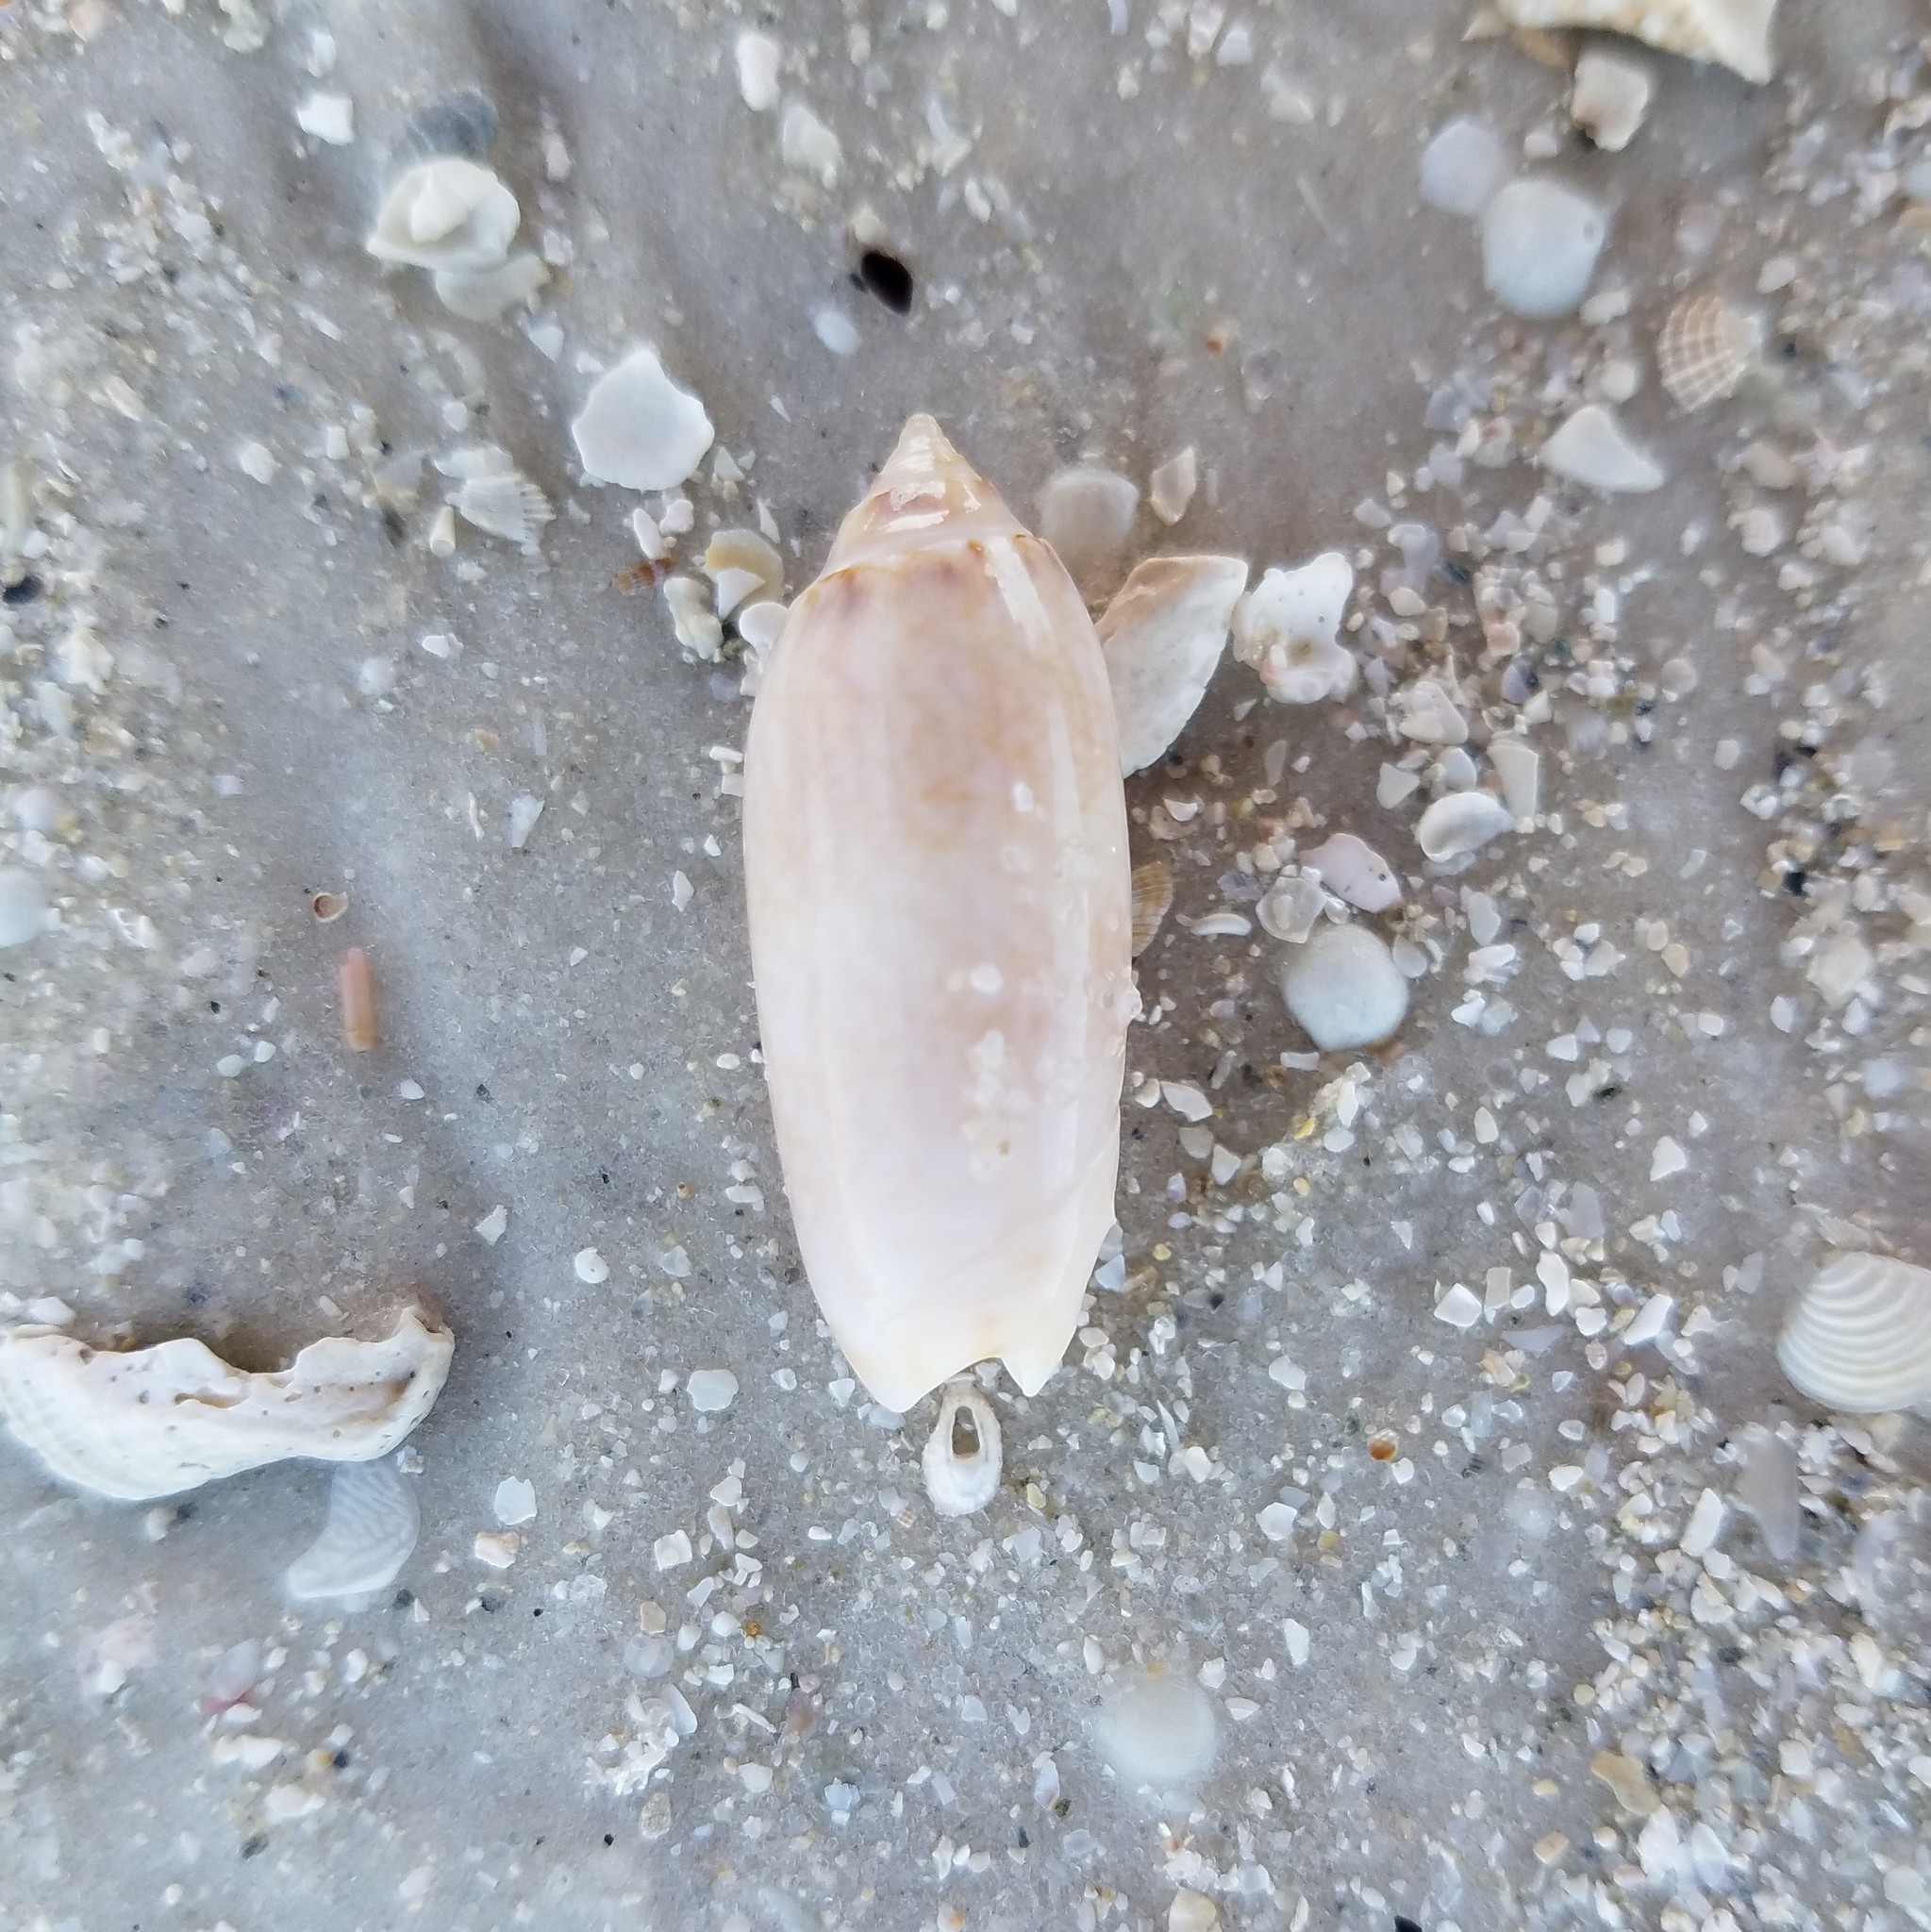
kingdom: Animalia
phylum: Mollusca
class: Gastropoda
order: Neogastropoda
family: Olividae
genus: Oliva
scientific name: Oliva sayana
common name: Lettered olive
